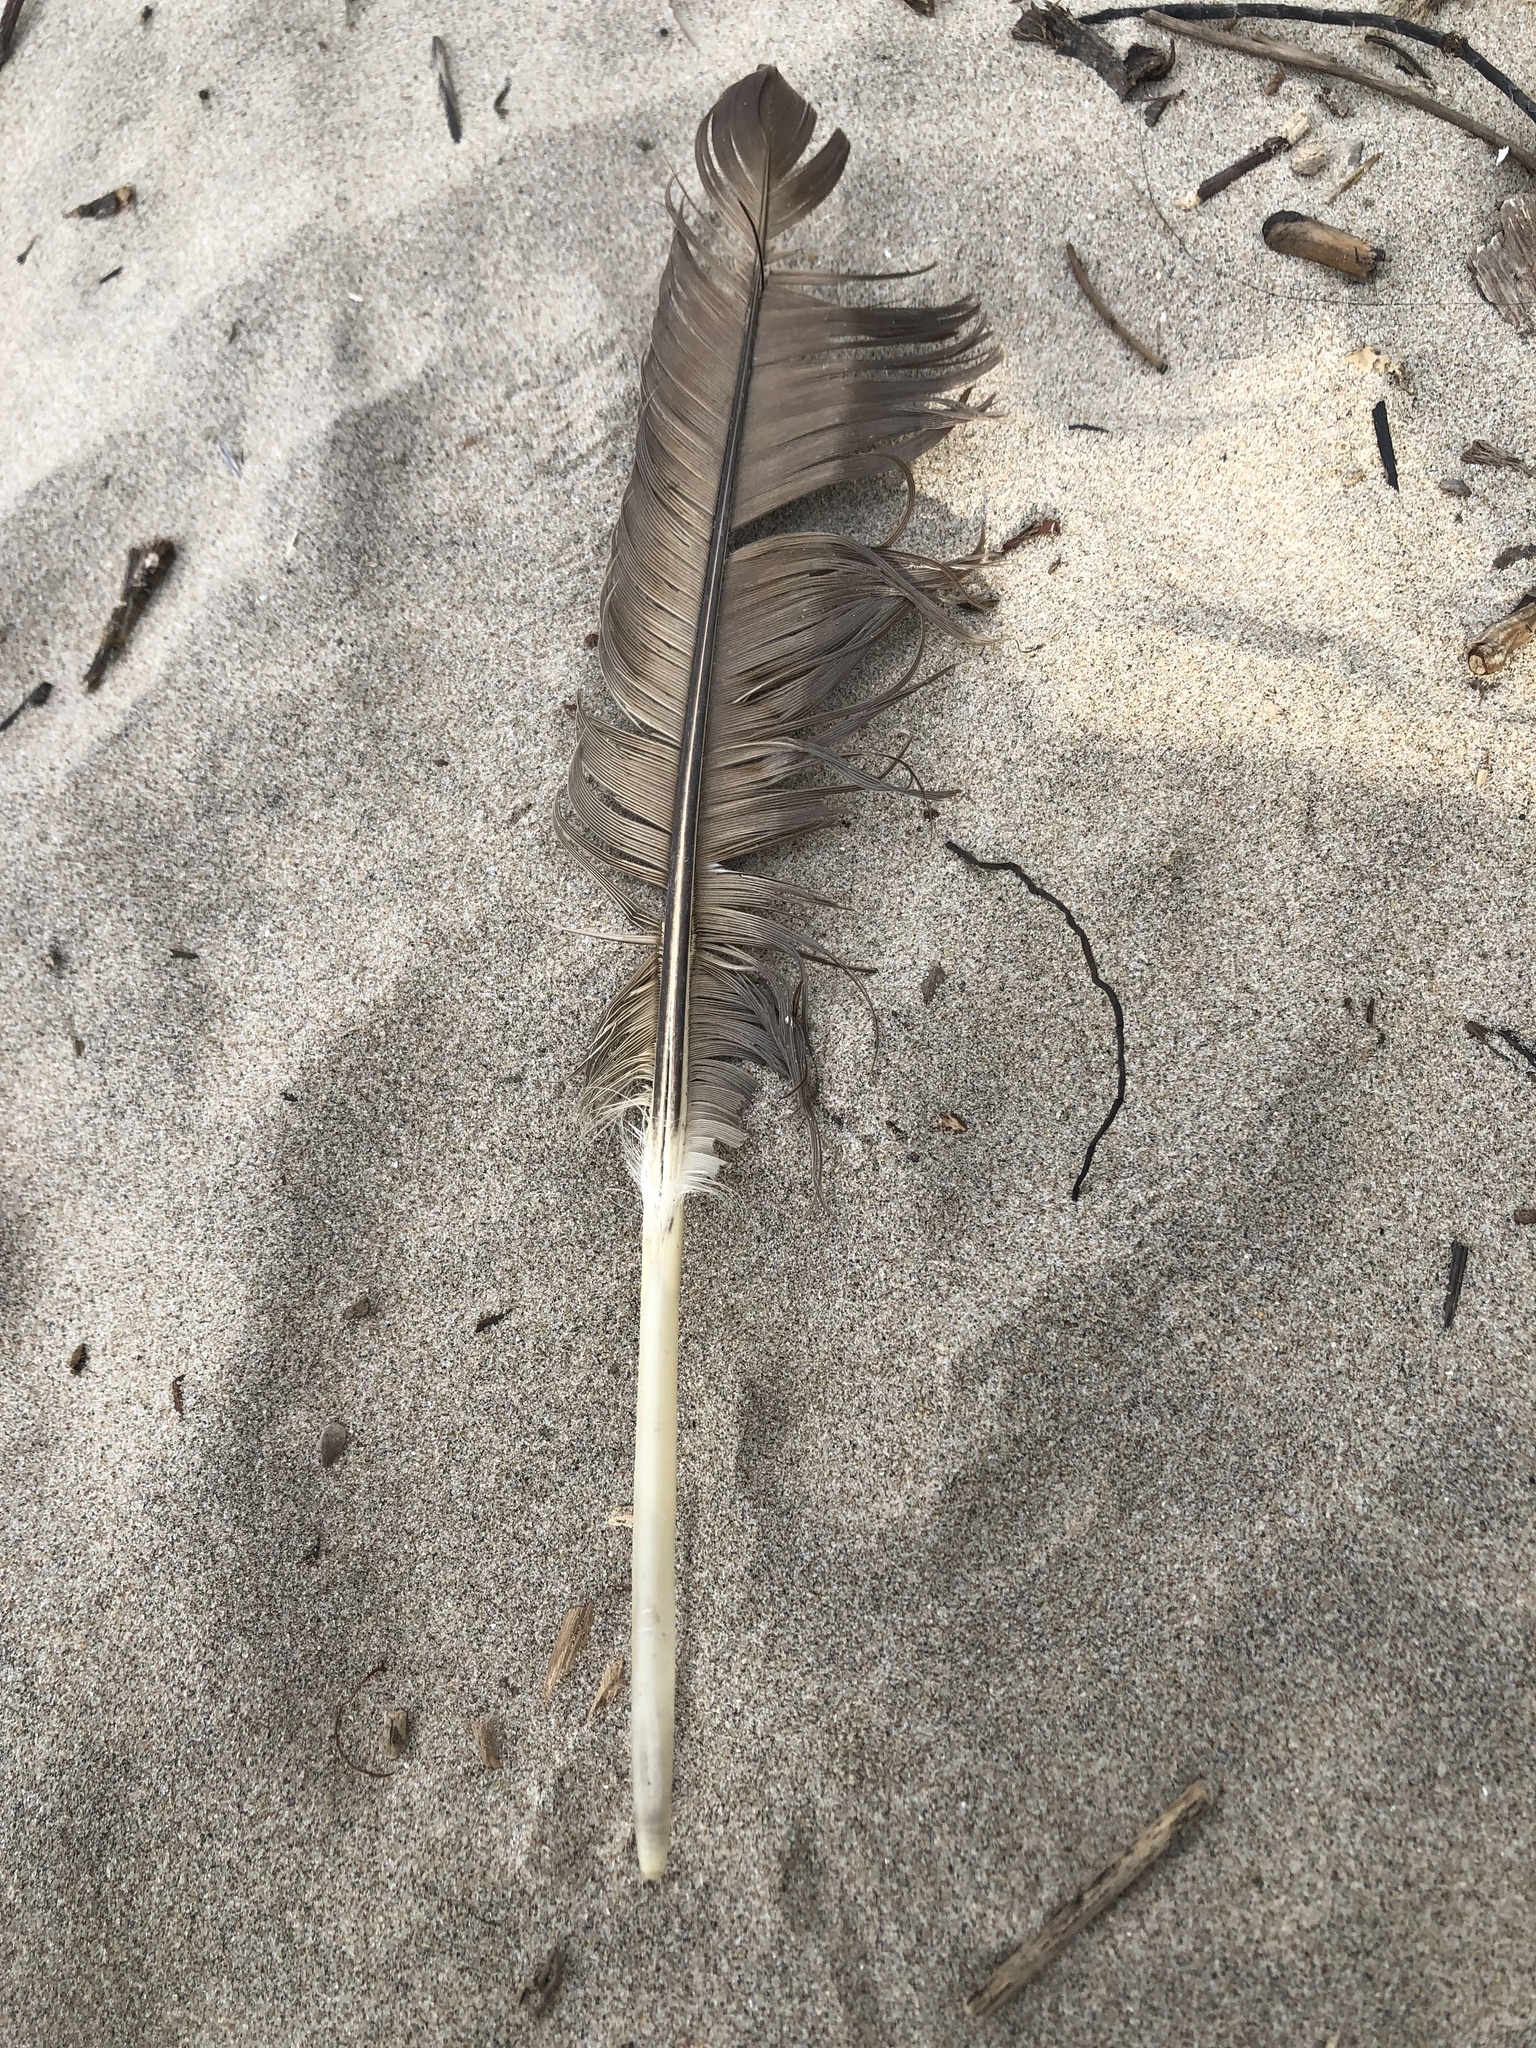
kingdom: Animalia
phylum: Chordata
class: Aves
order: Anseriformes
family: Anatidae
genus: Branta
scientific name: Branta canadensis
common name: Canada goose
